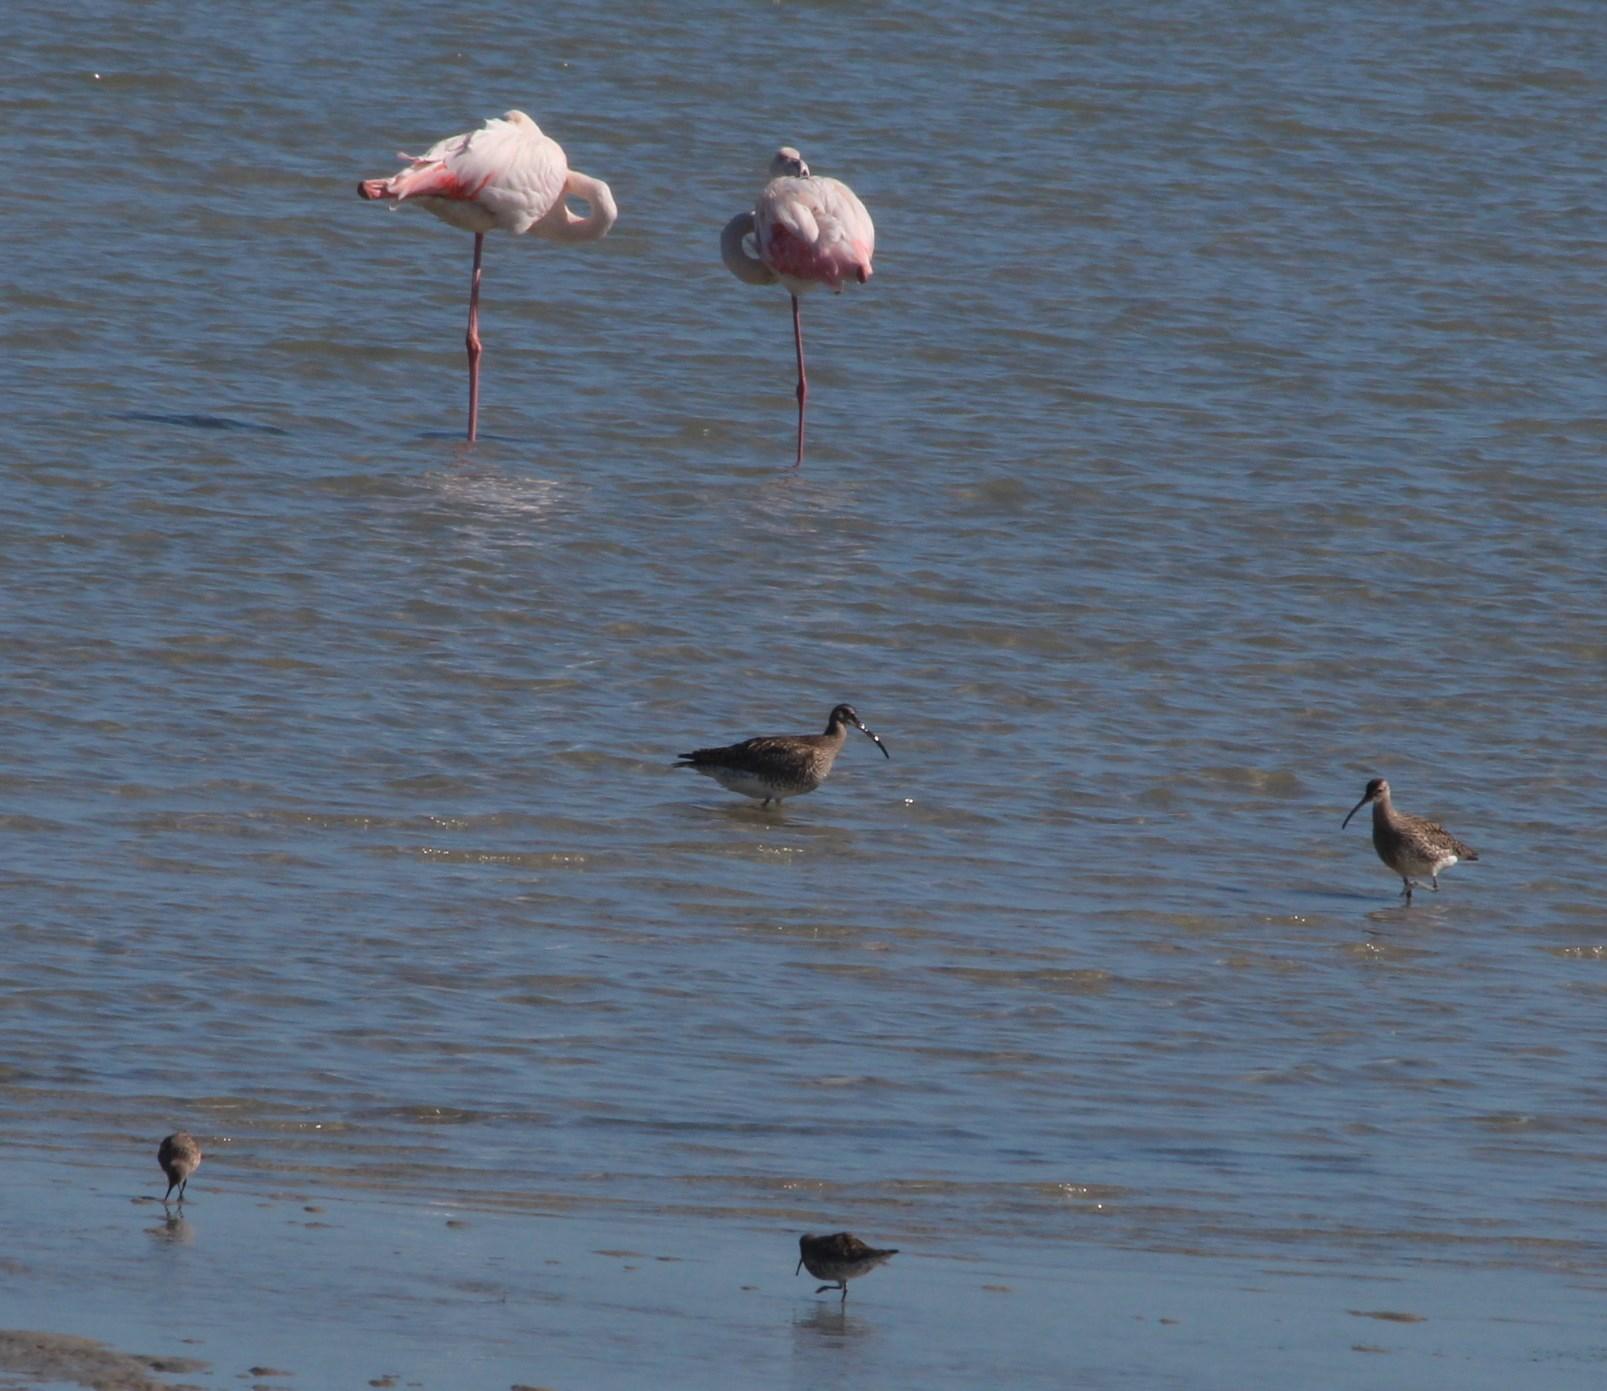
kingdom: Animalia
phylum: Chordata
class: Aves
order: Charadriiformes
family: Scolopacidae
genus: Calidris
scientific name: Calidris ferruginea
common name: Curlew sandpiper
